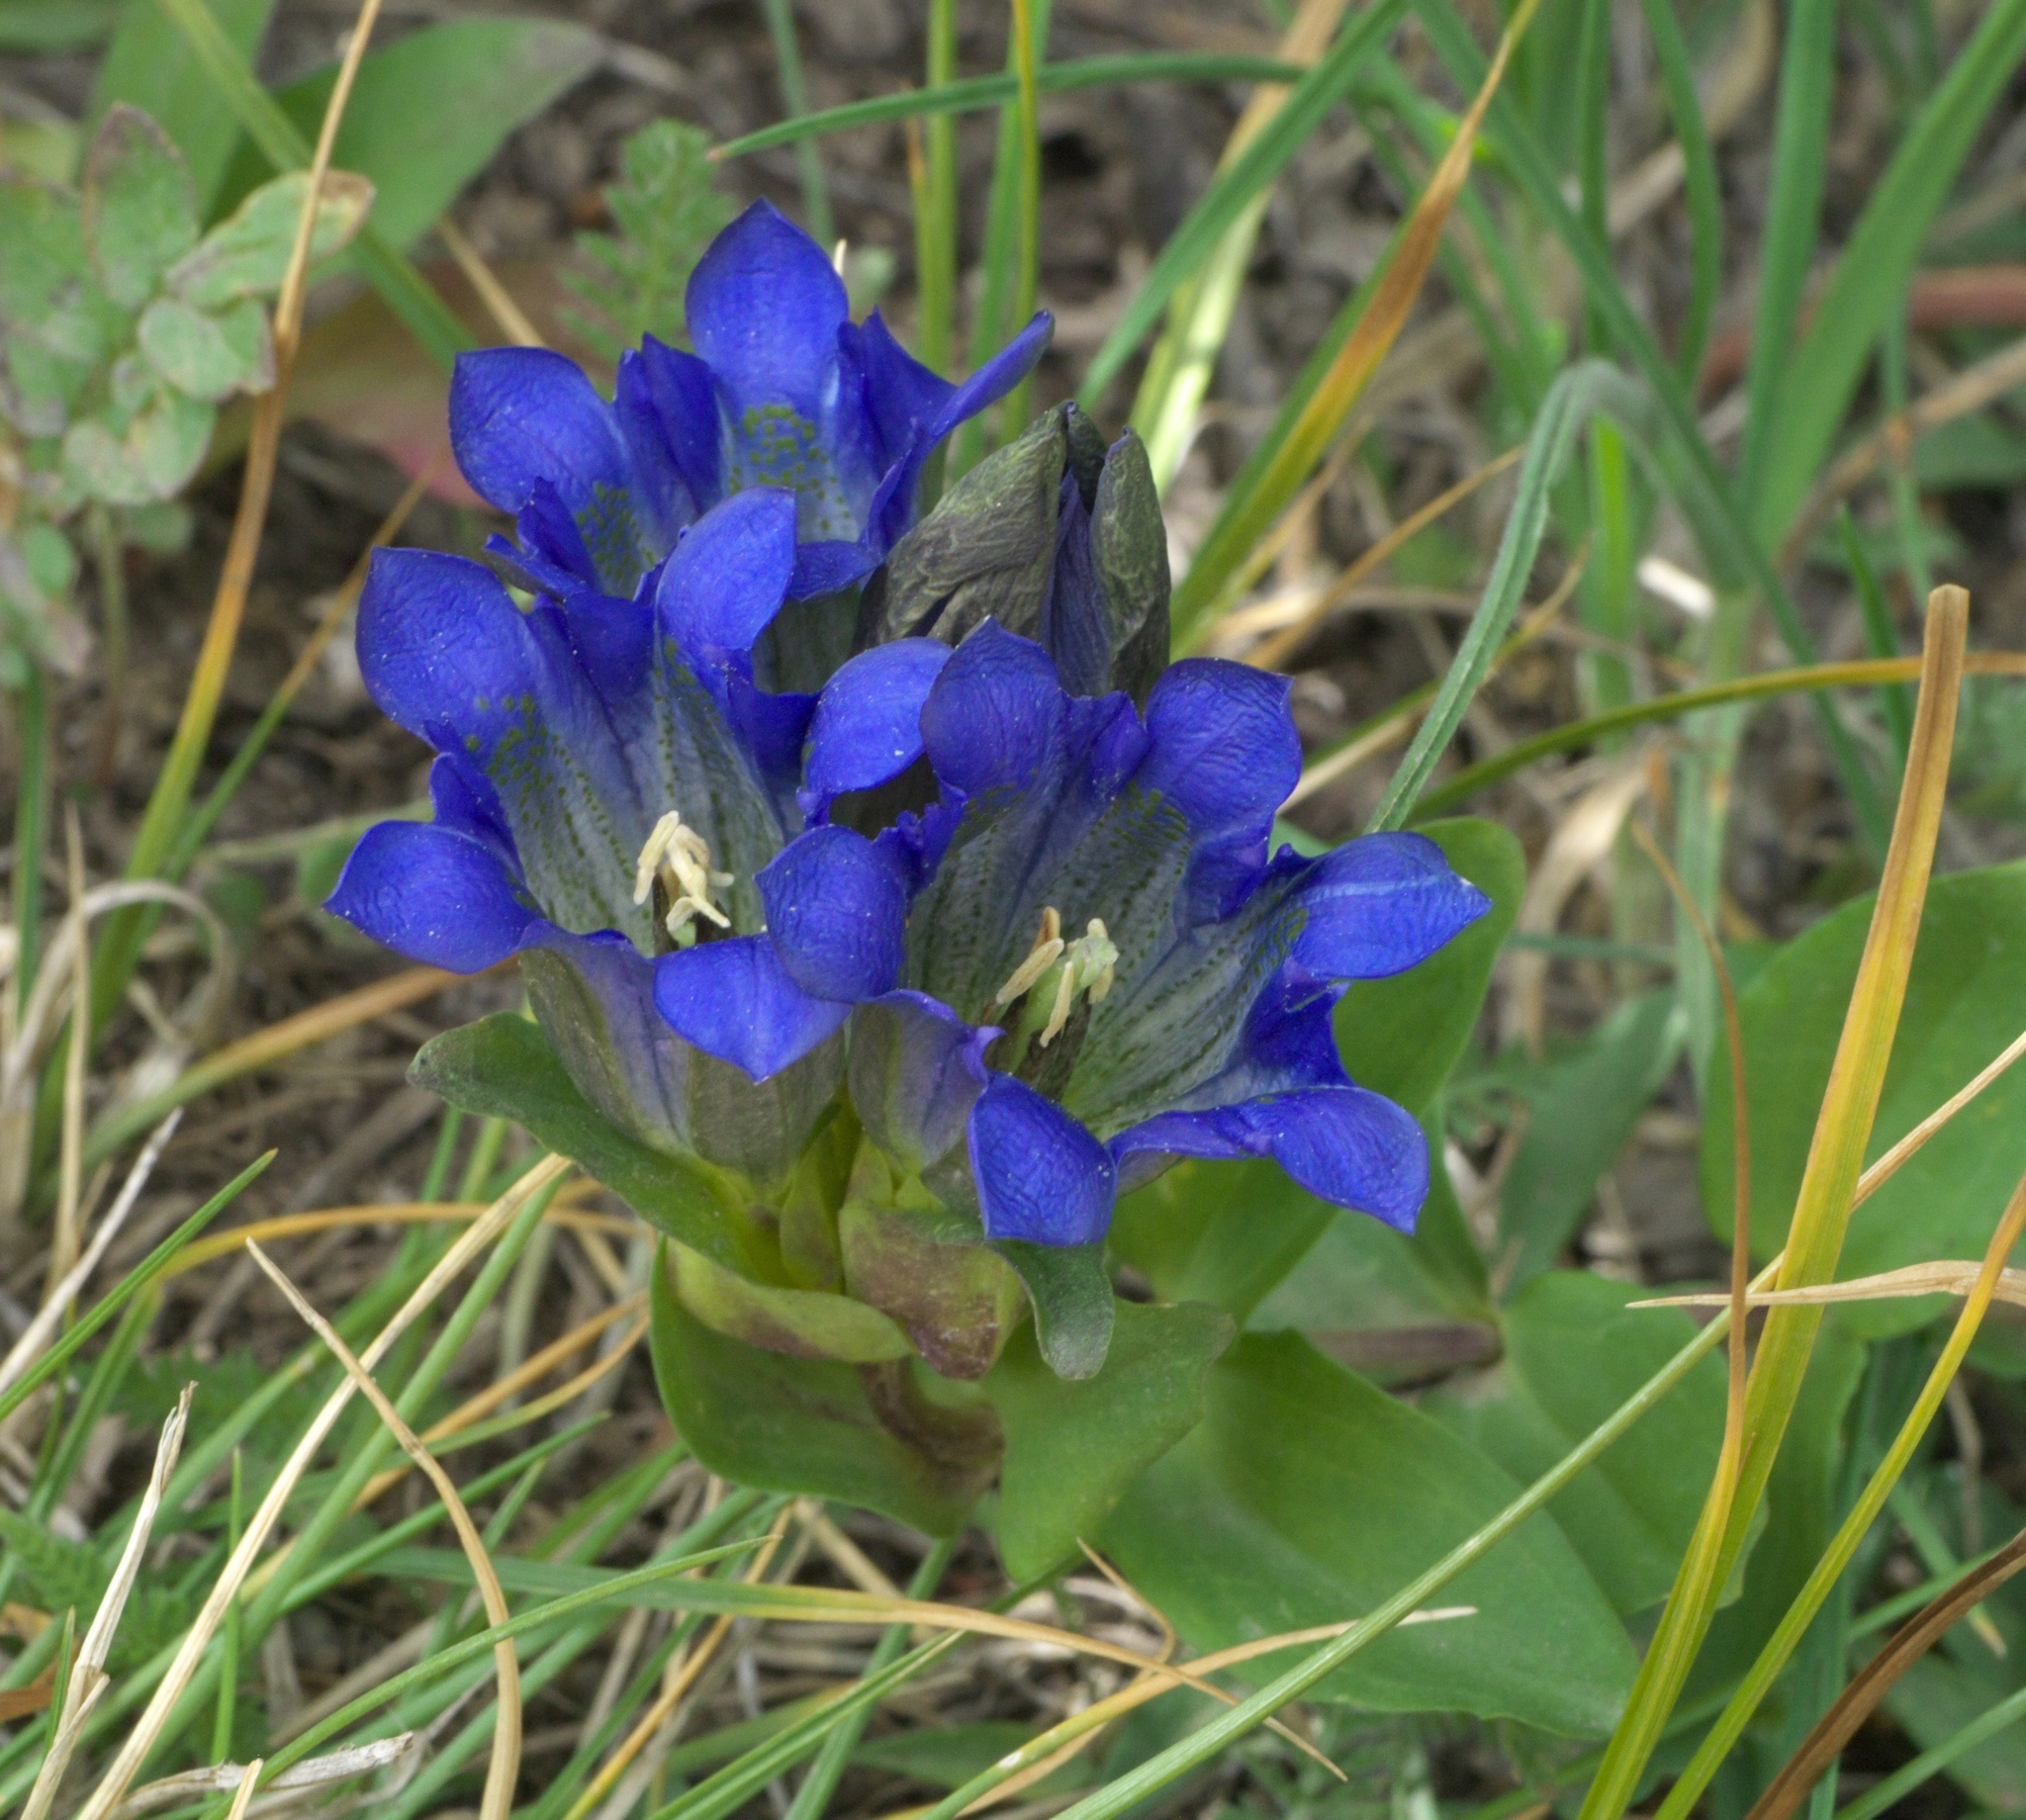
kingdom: Plantae
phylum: Tracheophyta
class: Magnoliopsida
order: Gentianales
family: Gentianaceae
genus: Gentiana
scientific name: Gentiana parryi
